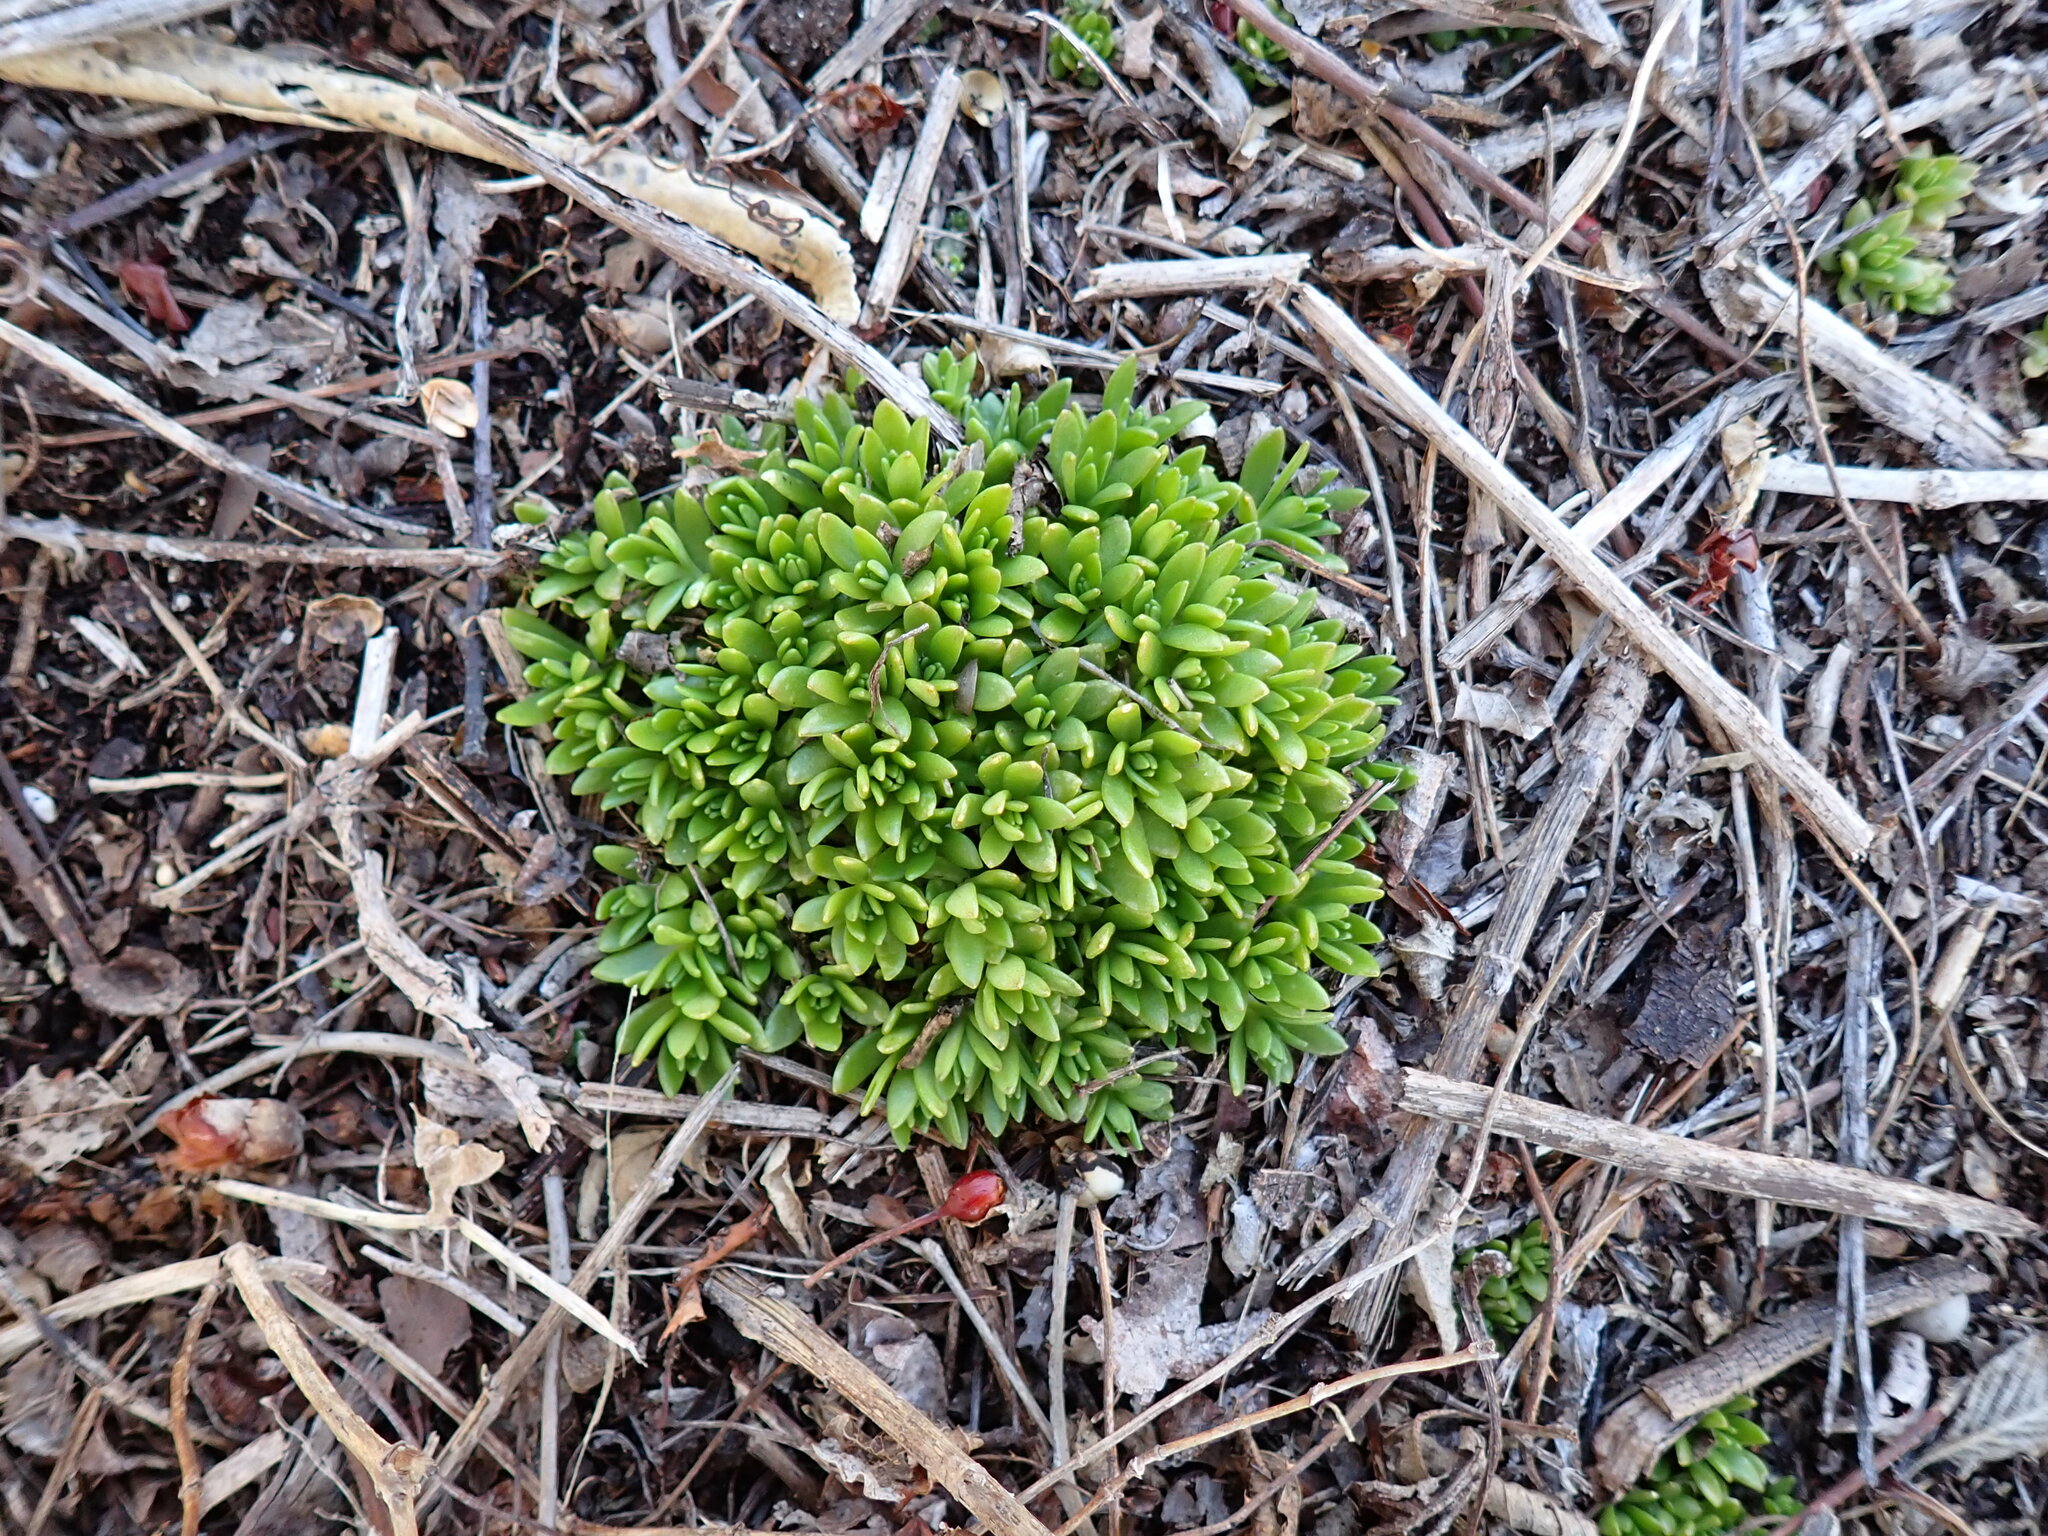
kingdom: Plantae
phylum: Tracheophyta
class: Magnoliopsida
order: Saxifragales
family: Crassulaceae
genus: Sedum
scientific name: Sedum sarmentosum
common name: Stringy stonecrop
